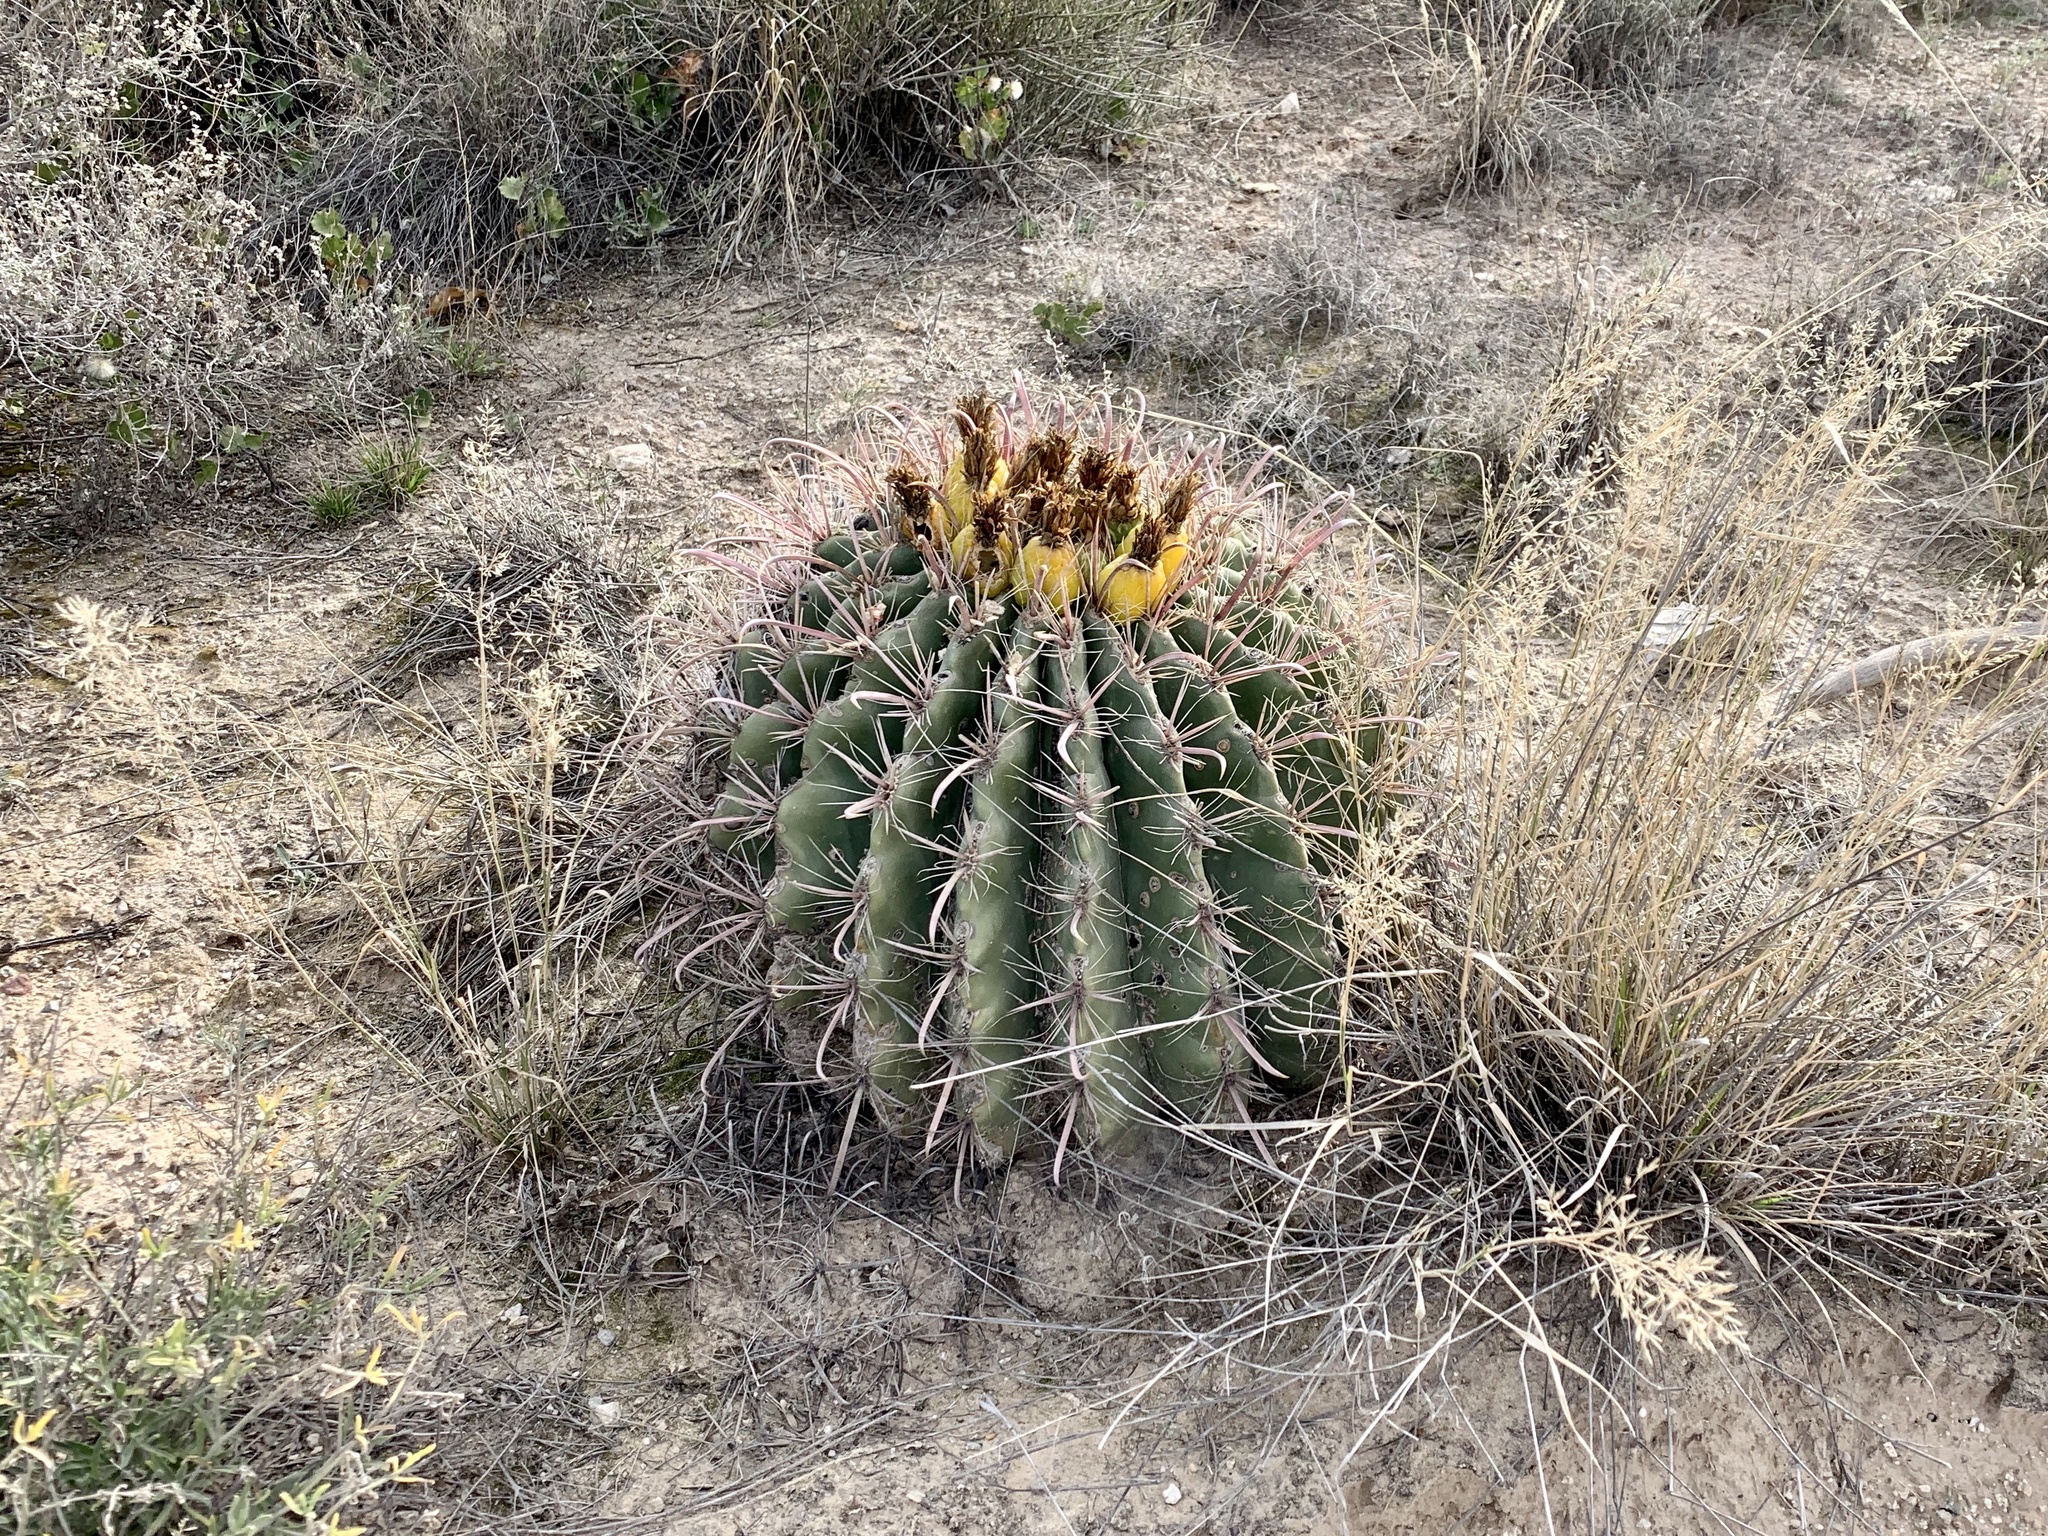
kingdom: Plantae
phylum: Tracheophyta
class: Magnoliopsida
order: Caryophyllales
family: Cactaceae
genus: Ferocactus
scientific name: Ferocactus wislizeni
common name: Candy barrel cactus
